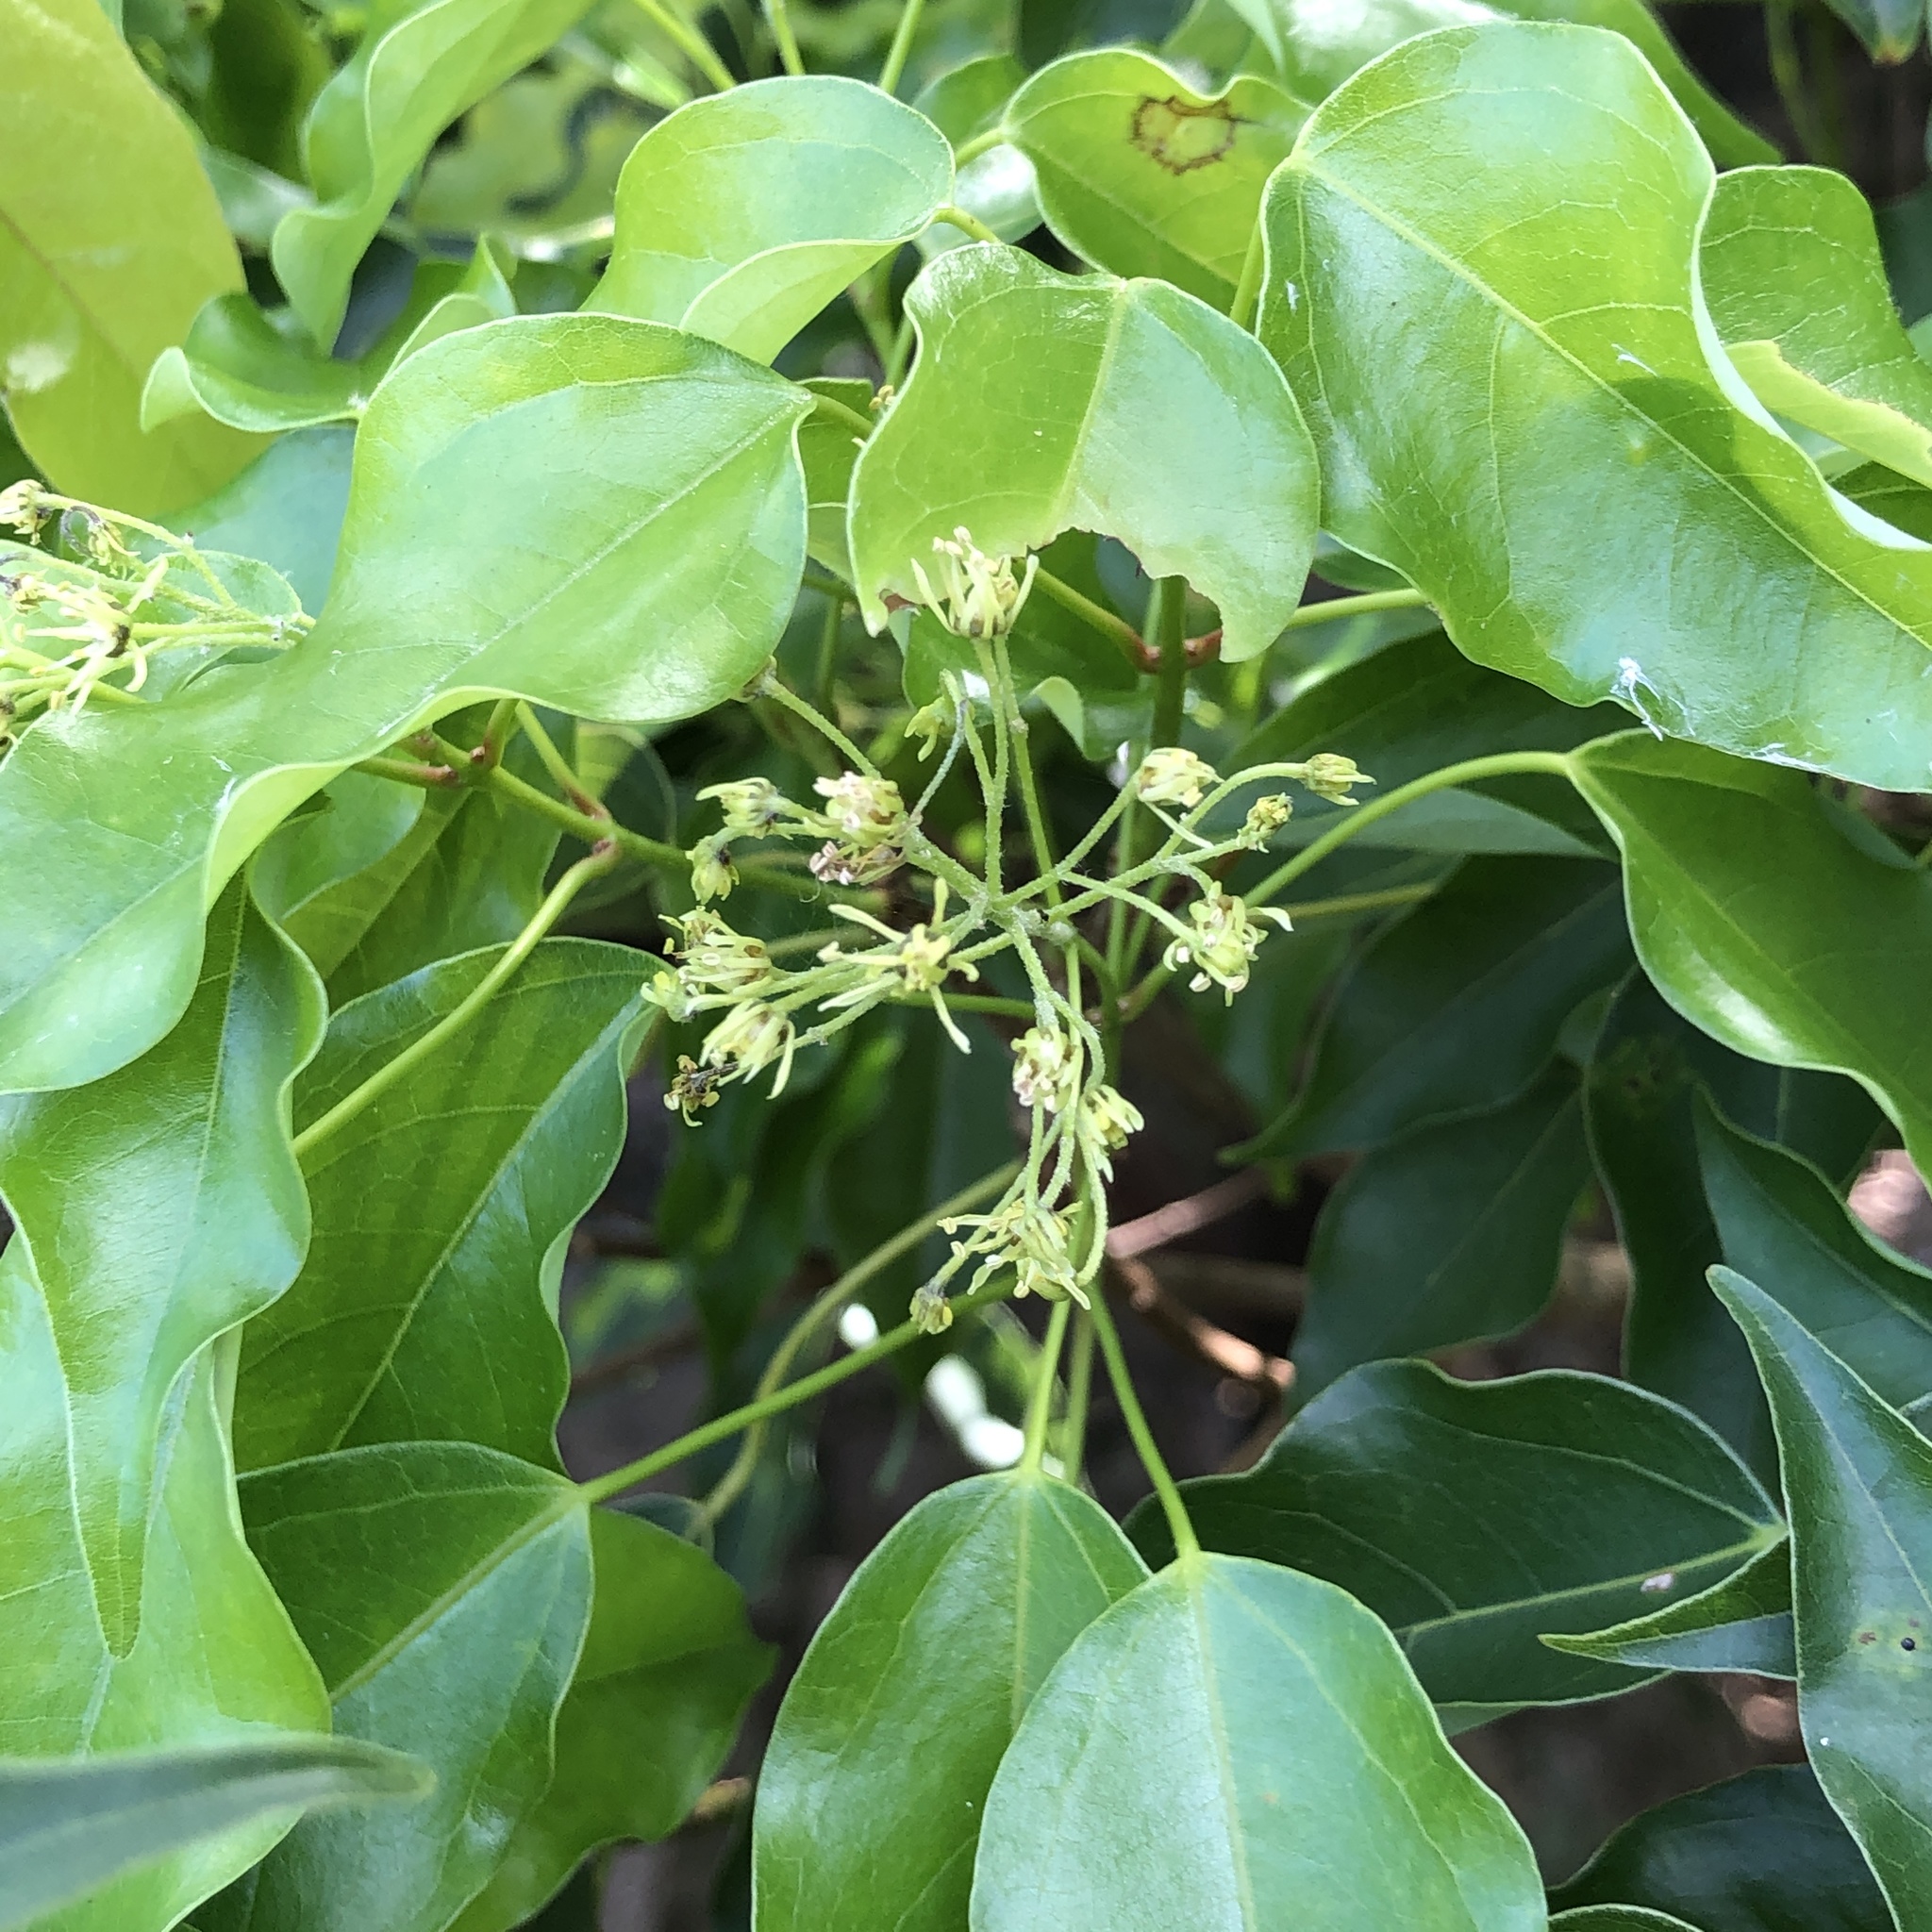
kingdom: Plantae
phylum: Tracheophyta
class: Magnoliopsida
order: Sapindales
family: Sapindaceae
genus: Acer
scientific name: Acer oblongum
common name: Himalayan maple
